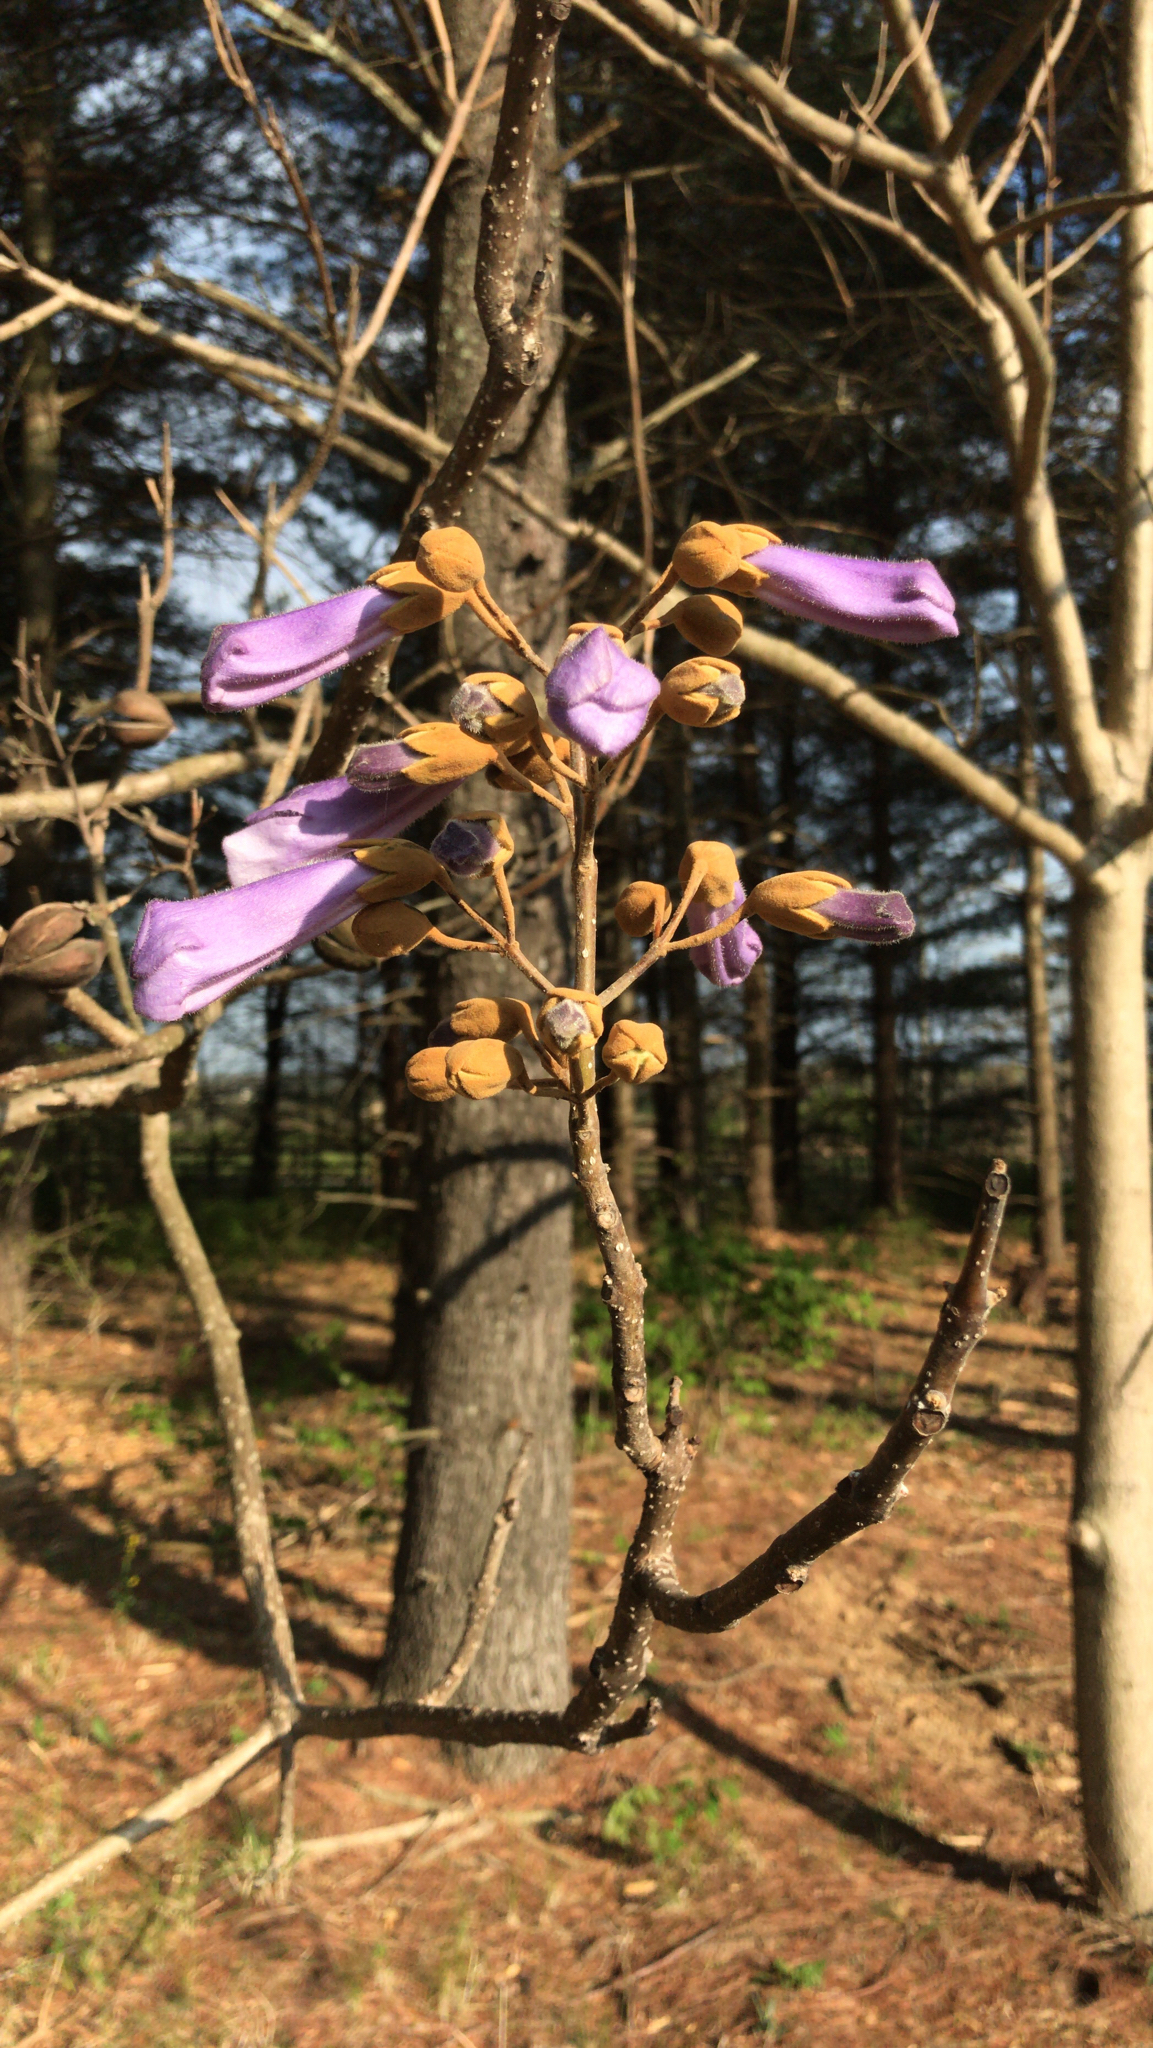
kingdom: Plantae
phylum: Tracheophyta
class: Magnoliopsida
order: Lamiales
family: Paulowniaceae
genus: Paulownia
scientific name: Paulownia tomentosa
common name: Foxglove-tree
